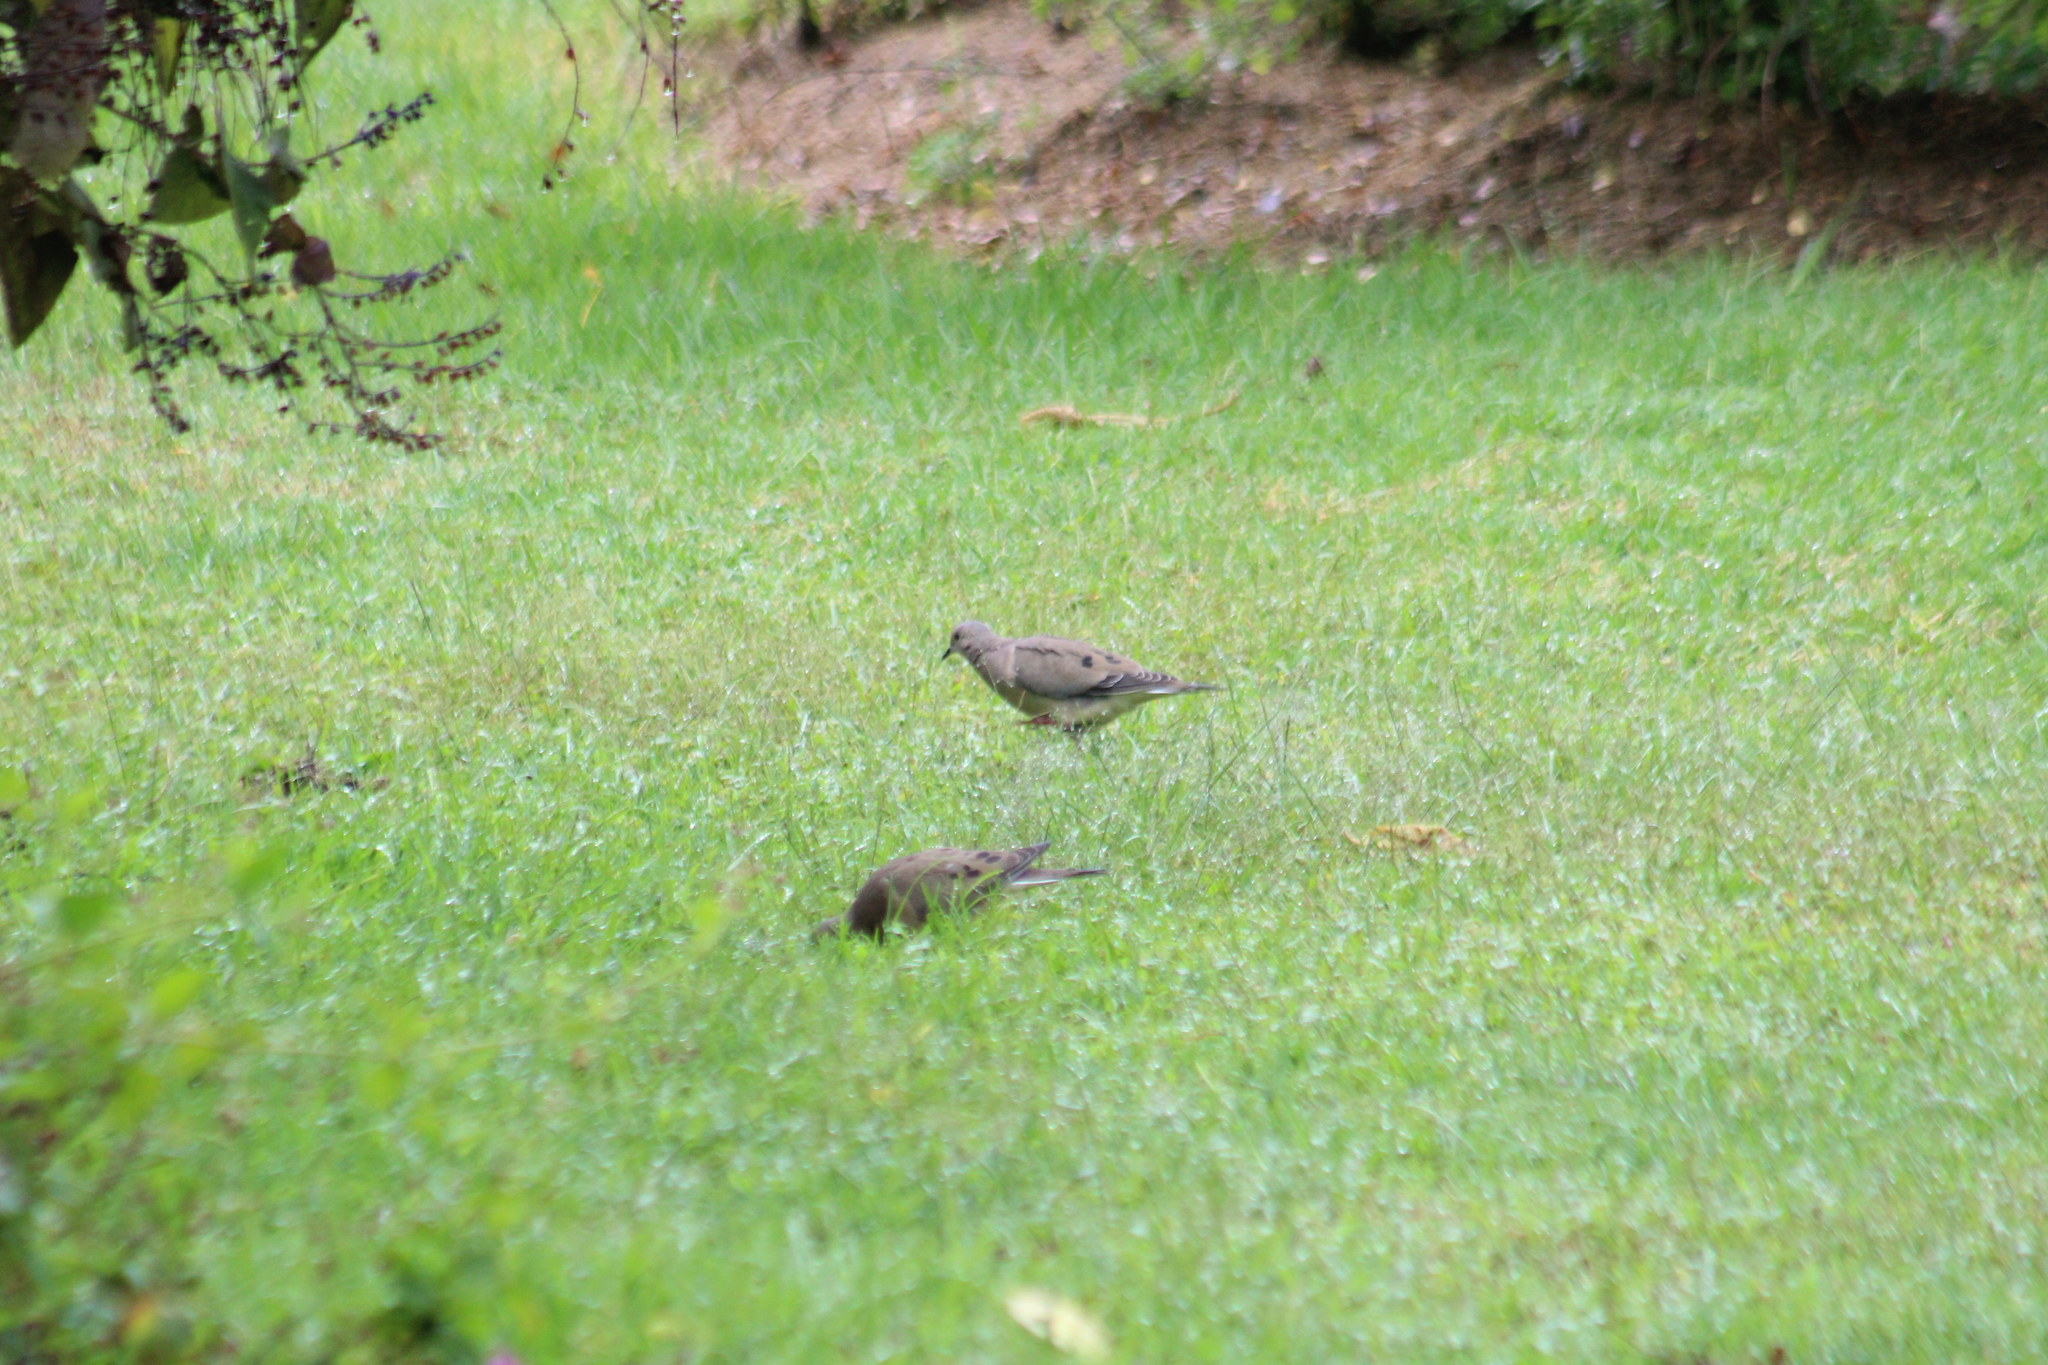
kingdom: Animalia
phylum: Chordata
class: Aves
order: Columbiformes
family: Columbidae
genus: Zenaida
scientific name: Zenaida auriculata
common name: Eared dove
